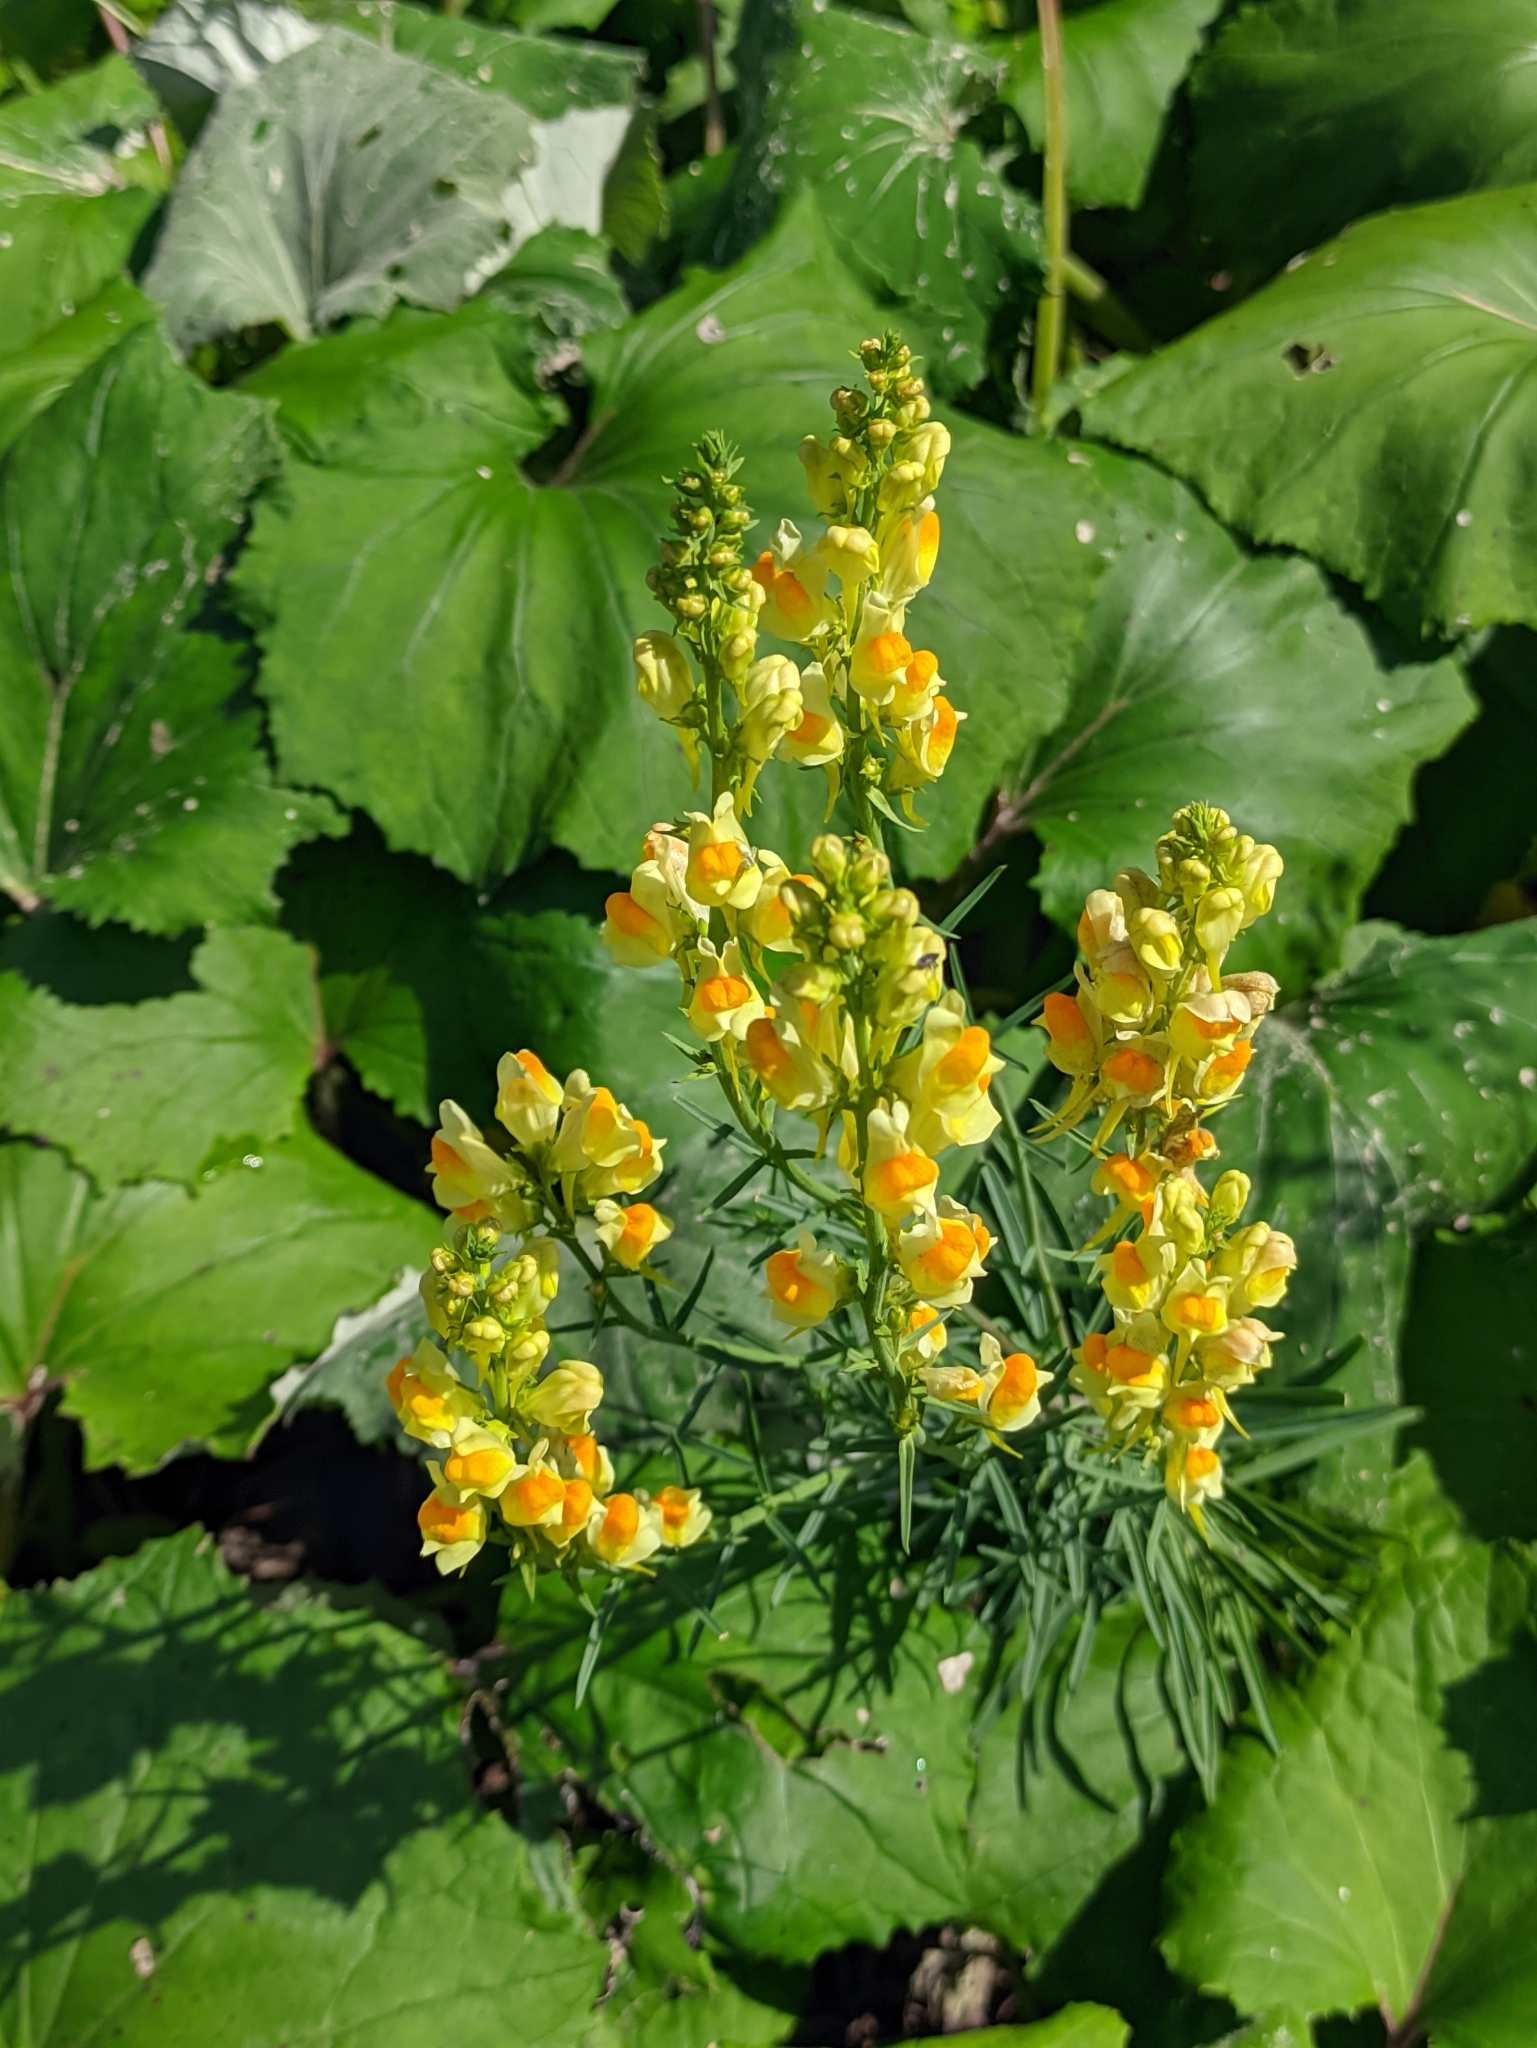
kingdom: Plantae
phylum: Tracheophyta
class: Magnoliopsida
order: Lamiales
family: Plantaginaceae
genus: Linaria
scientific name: Linaria vulgaris
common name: Butter and eggs
